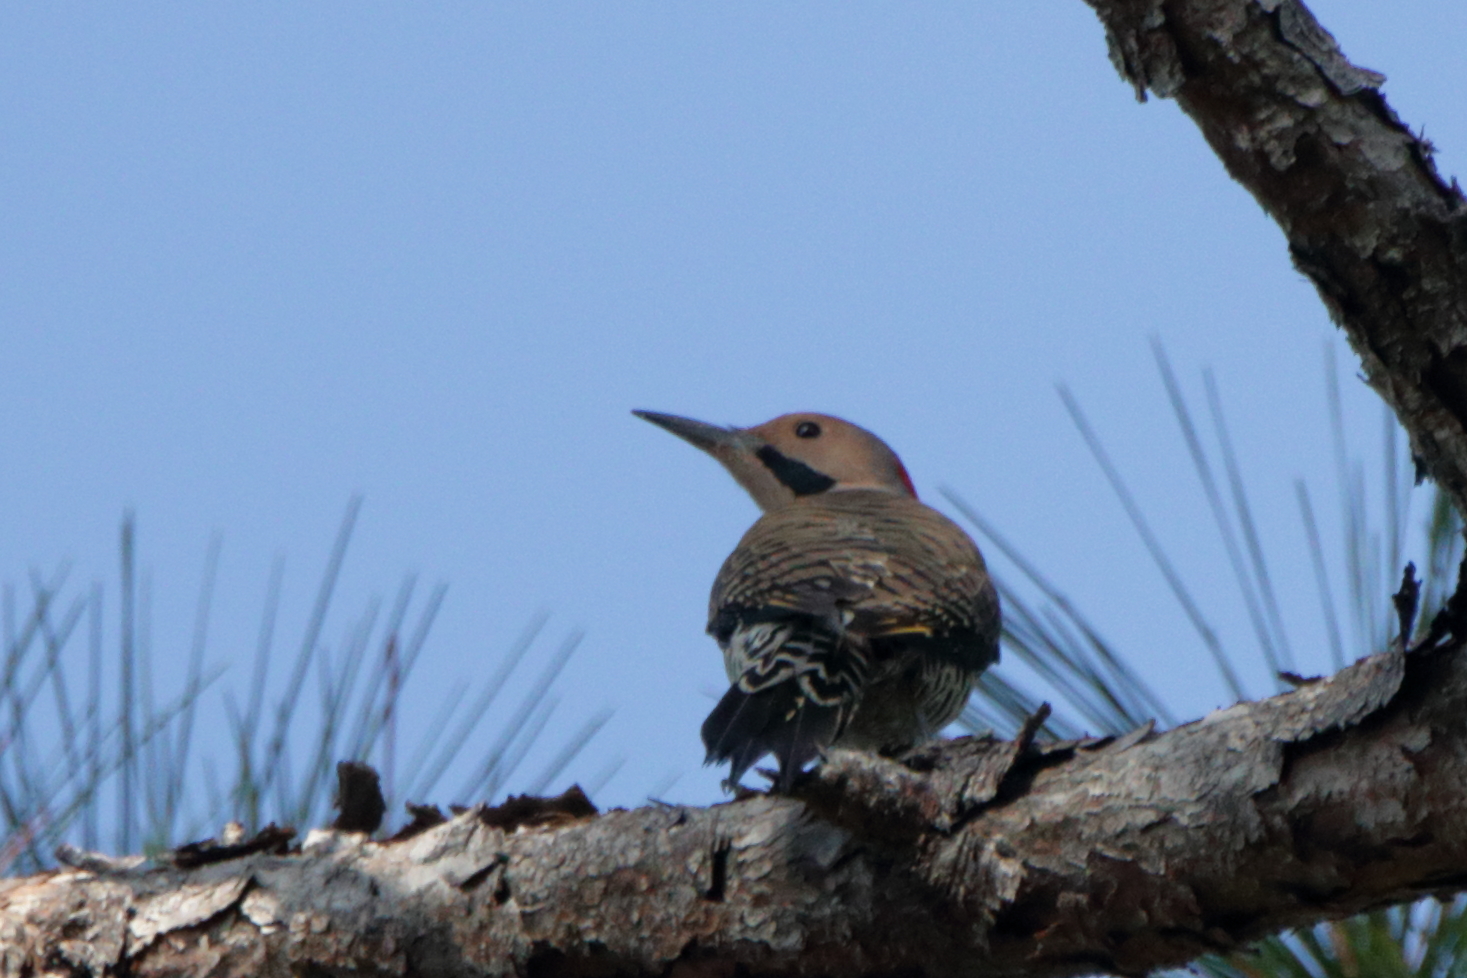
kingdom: Animalia
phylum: Chordata
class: Aves
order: Piciformes
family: Picidae
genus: Colaptes
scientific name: Colaptes auratus
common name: Northern flicker
